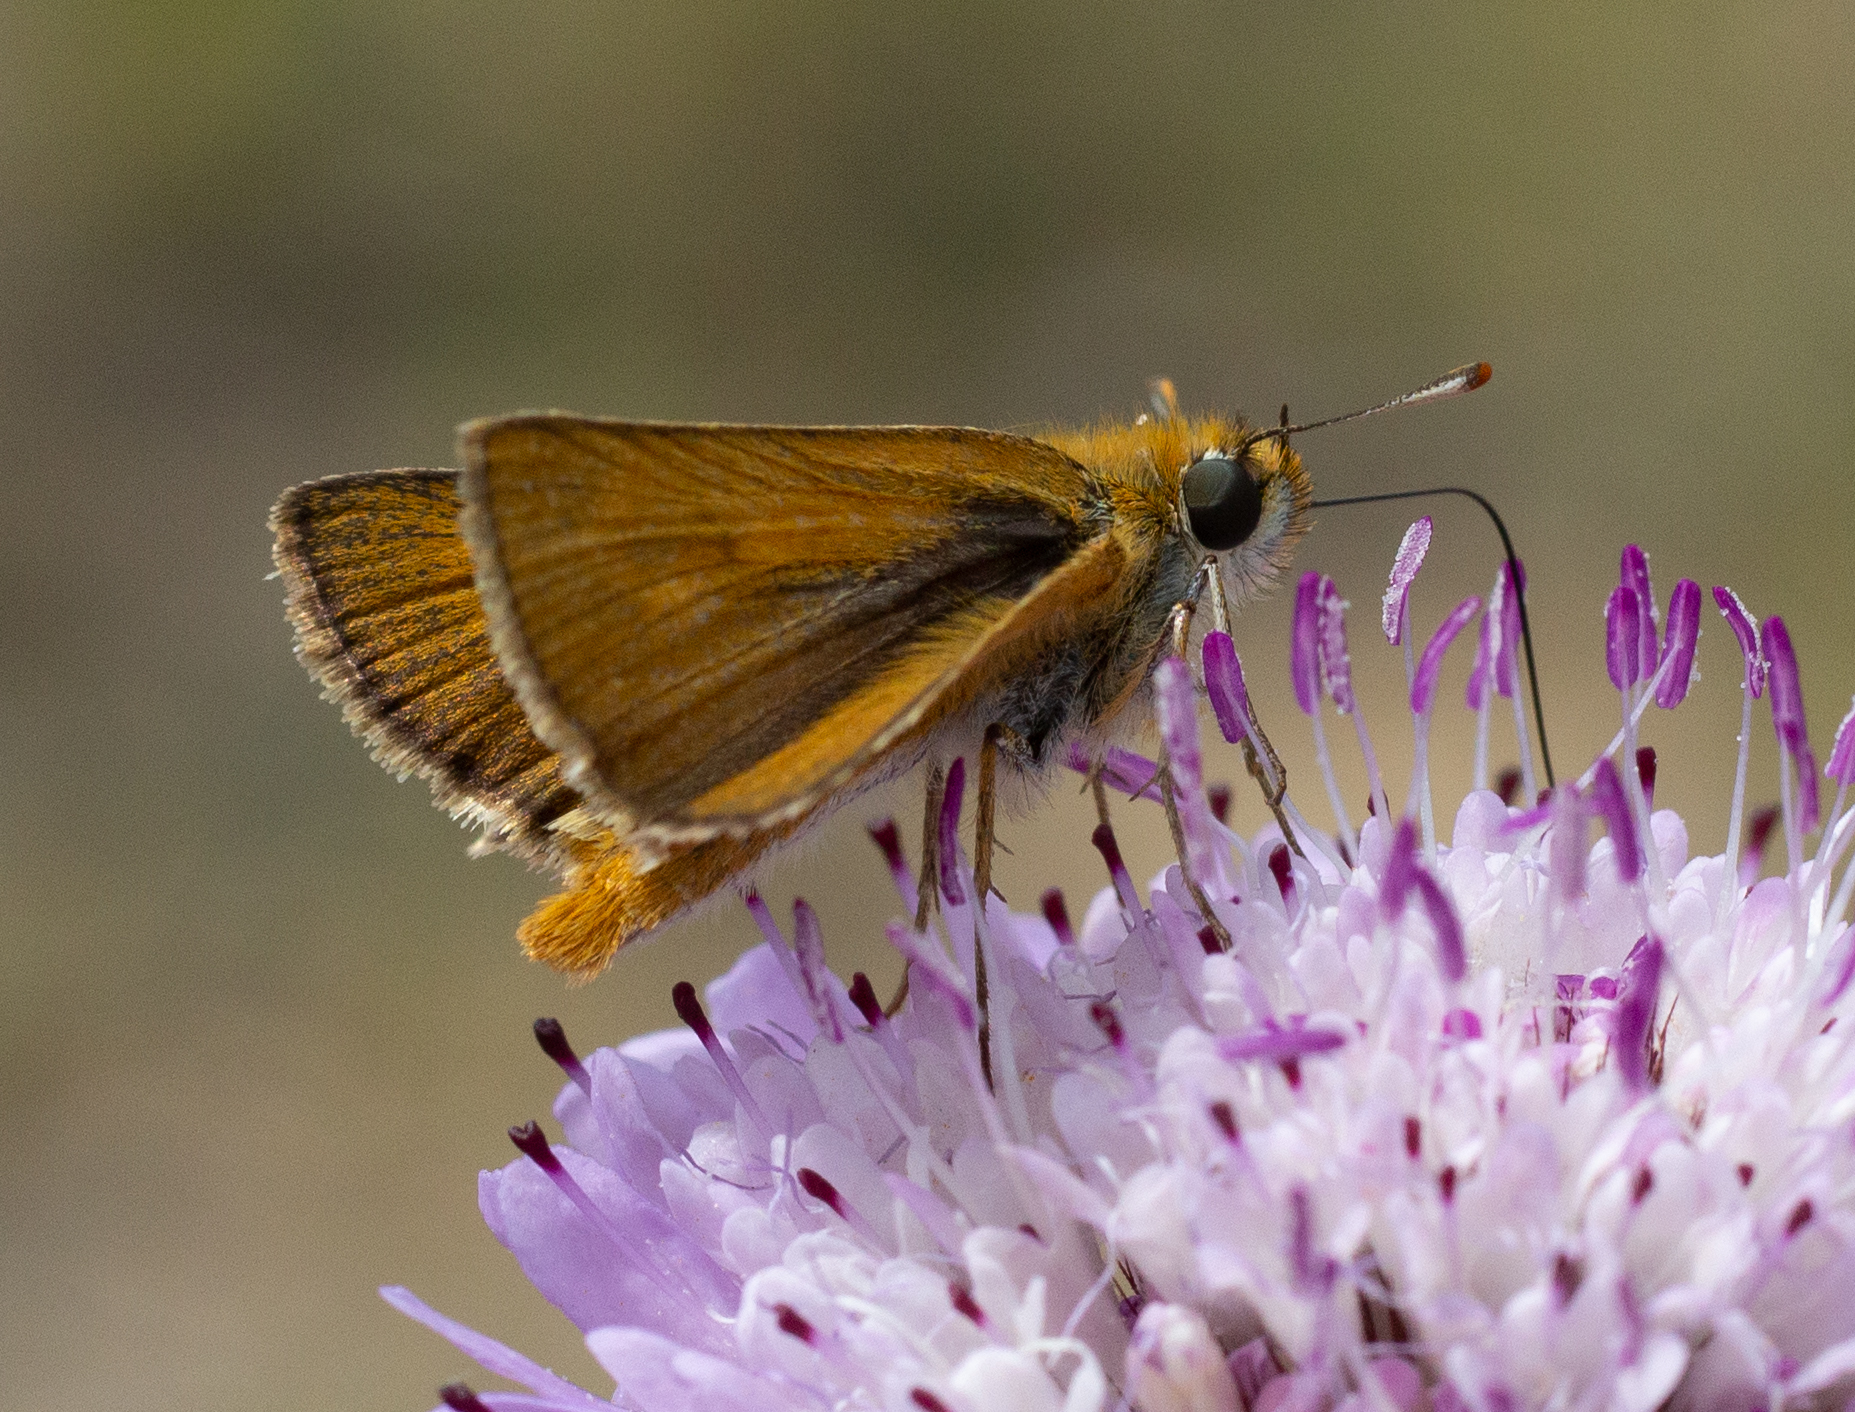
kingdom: Animalia
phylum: Arthropoda
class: Insecta
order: Lepidoptera
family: Hesperiidae
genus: Thymelicus
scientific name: Thymelicus acteon
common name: Lulworth skipper
